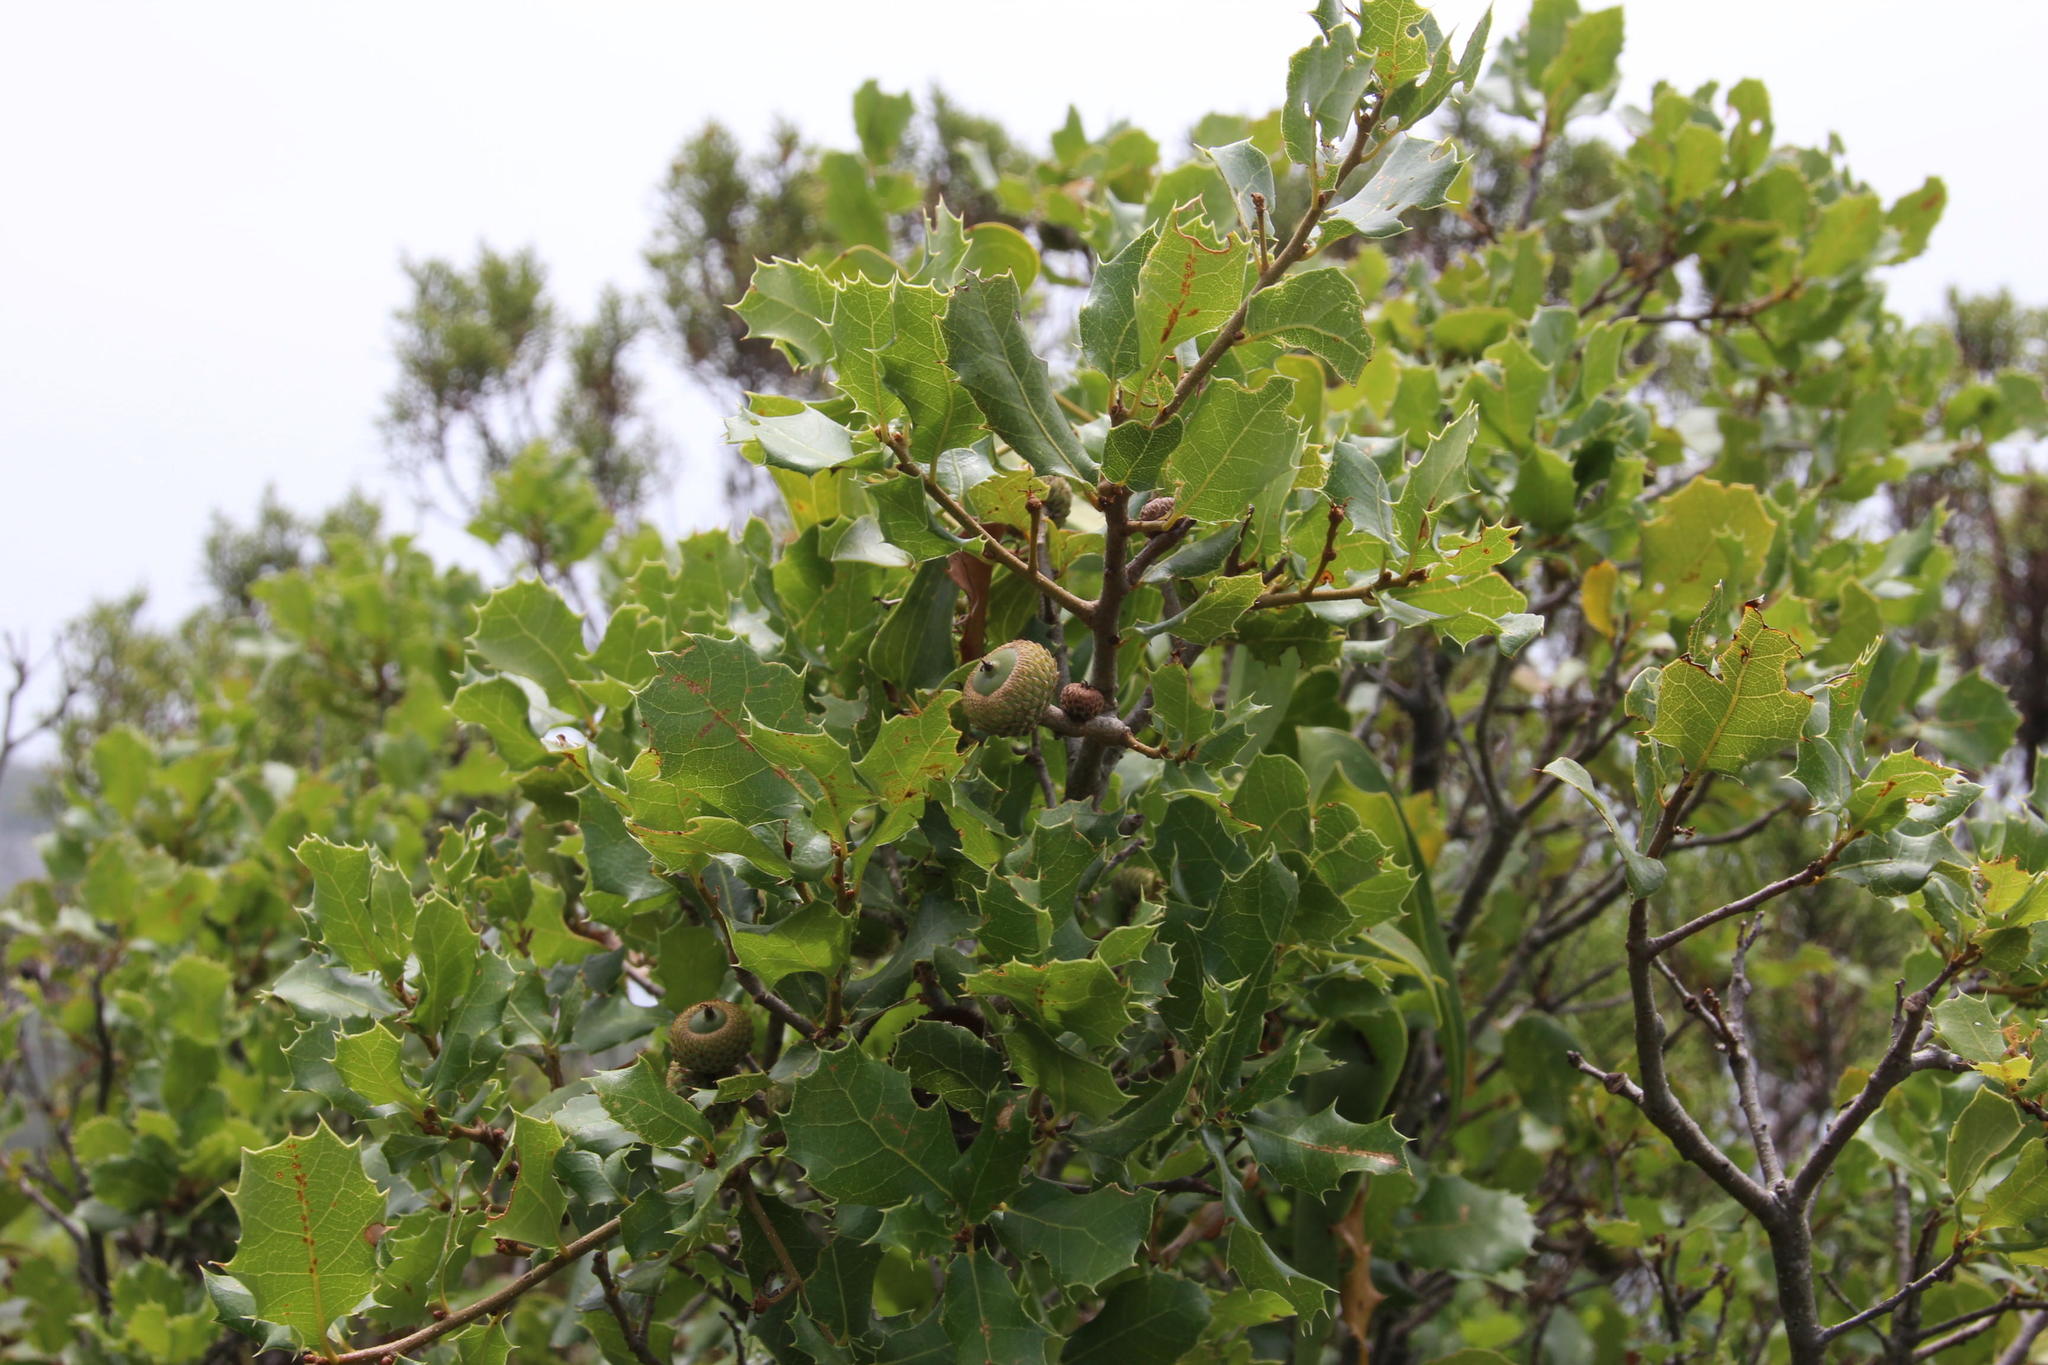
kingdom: Plantae
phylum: Tracheophyta
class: Magnoliopsida
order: Fagales
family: Fagaceae
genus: Quercus
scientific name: Quercus coccifera
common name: Kermes oak
